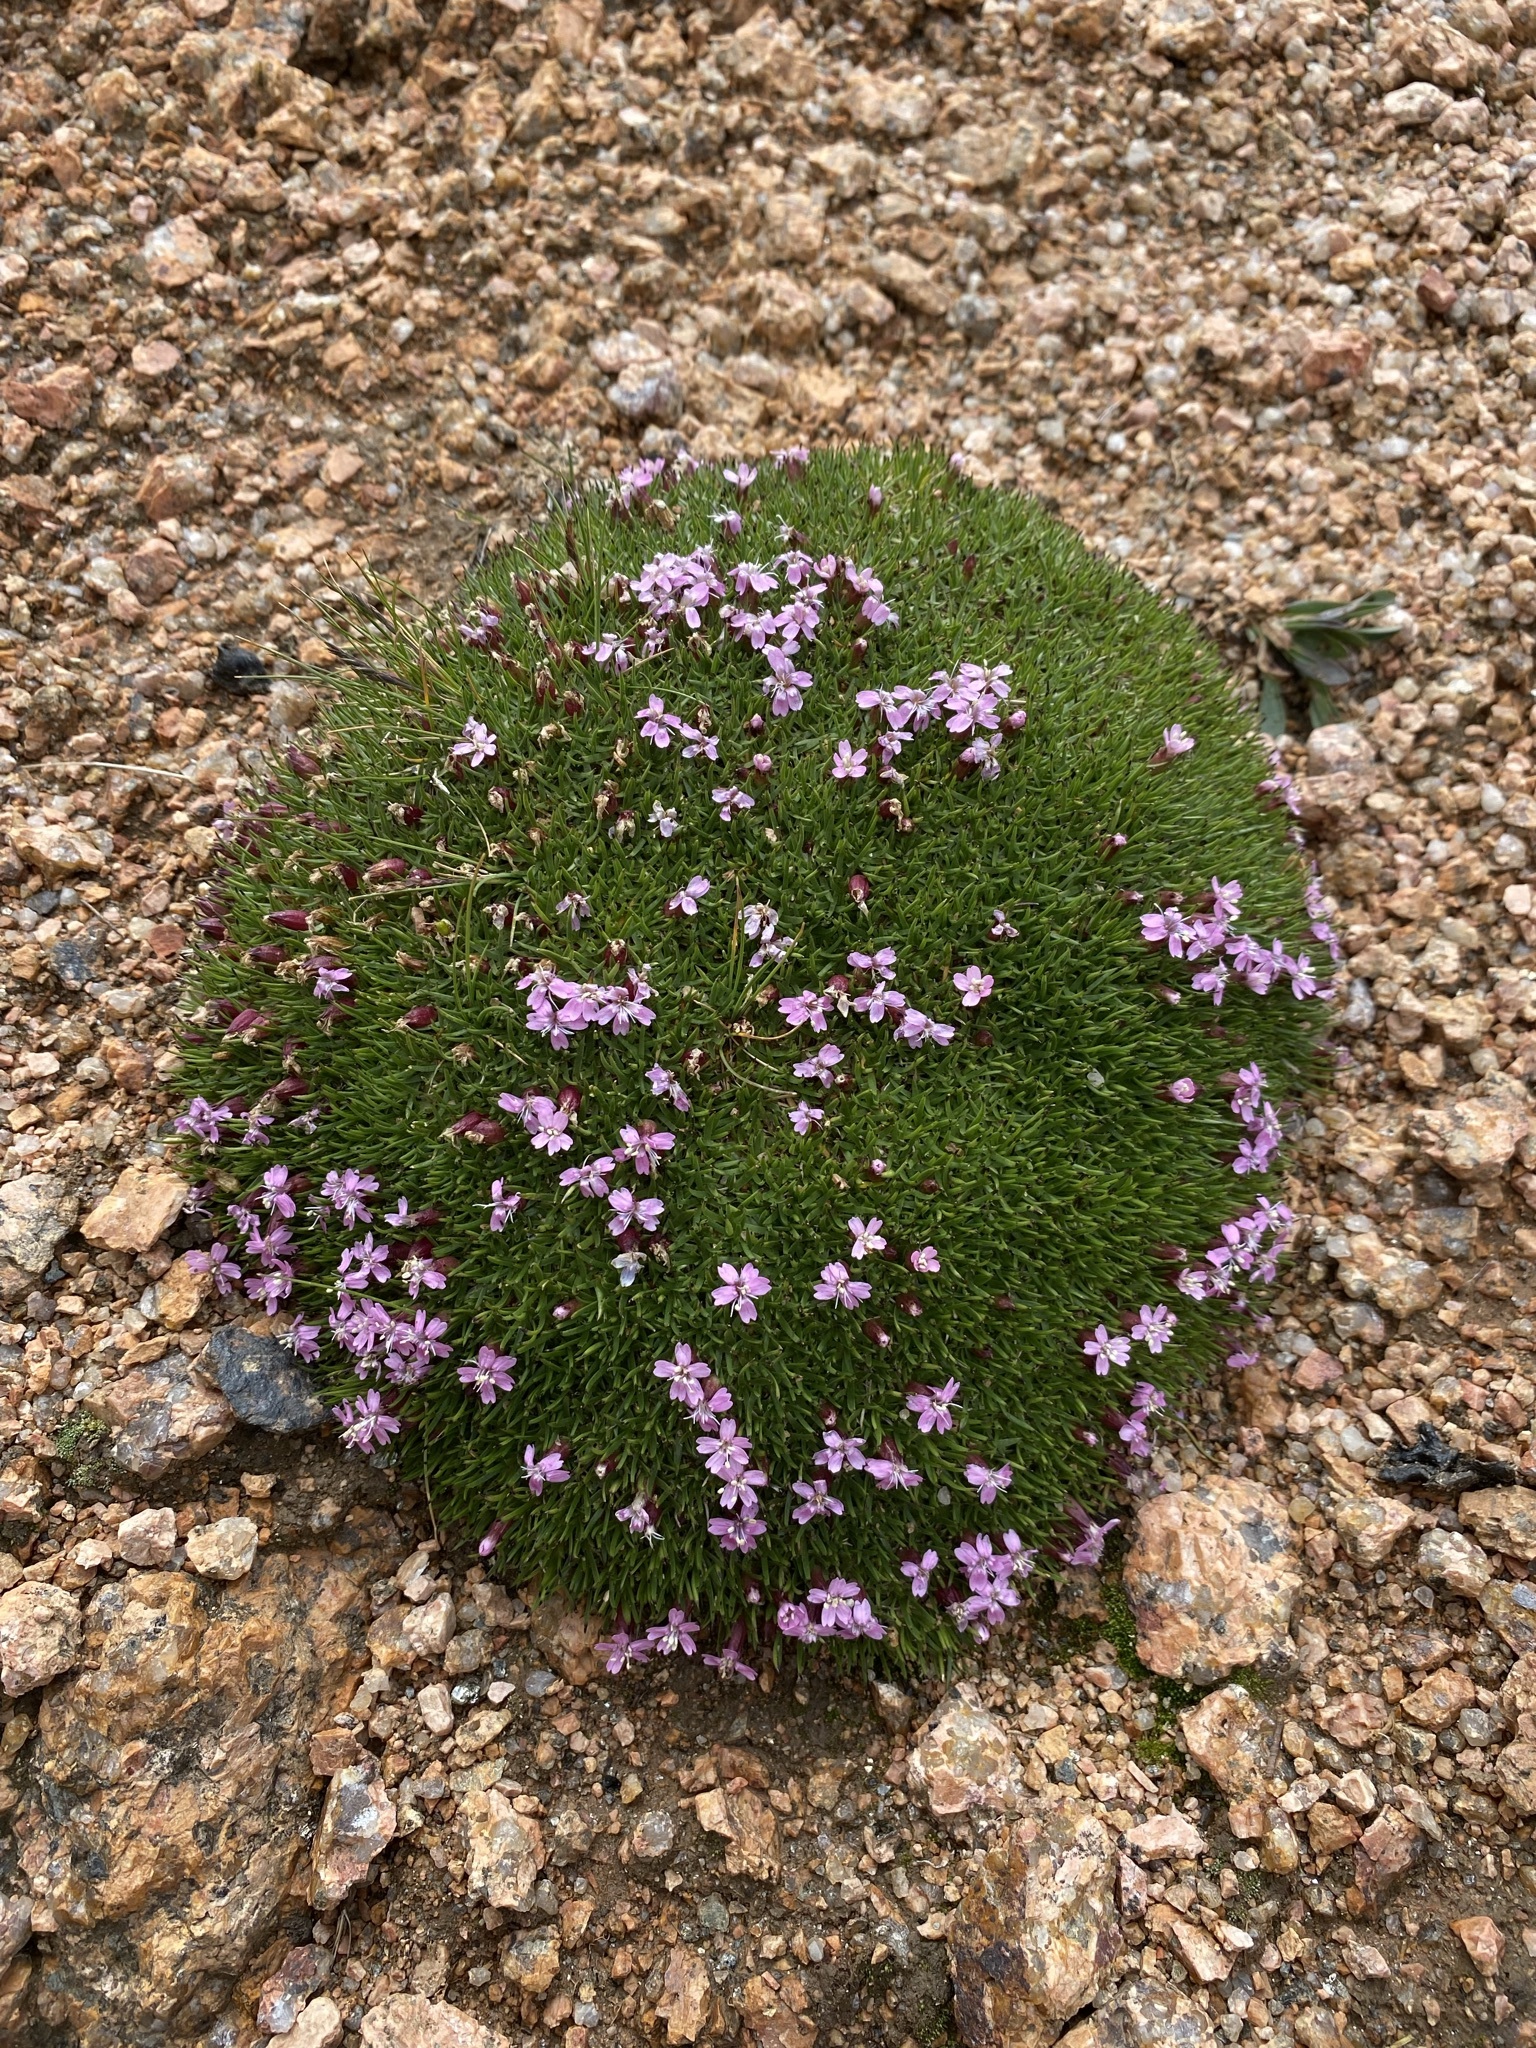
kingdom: Plantae
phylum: Tracheophyta
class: Magnoliopsida
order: Caryophyllales
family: Caryophyllaceae
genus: Silene
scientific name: Silene acaulis
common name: Moss campion
